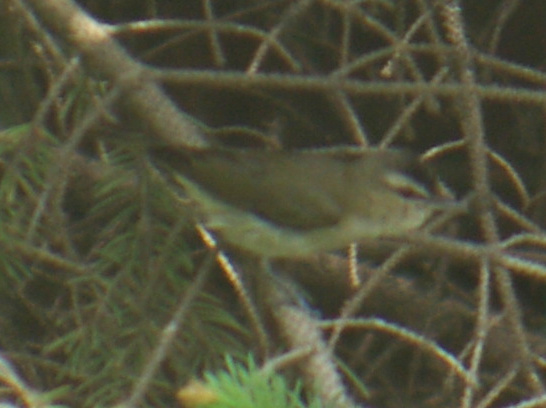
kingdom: Animalia
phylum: Chordata
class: Aves
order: Passeriformes
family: Vireonidae
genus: Vireo
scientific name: Vireo olivaceus
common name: Red-eyed vireo
